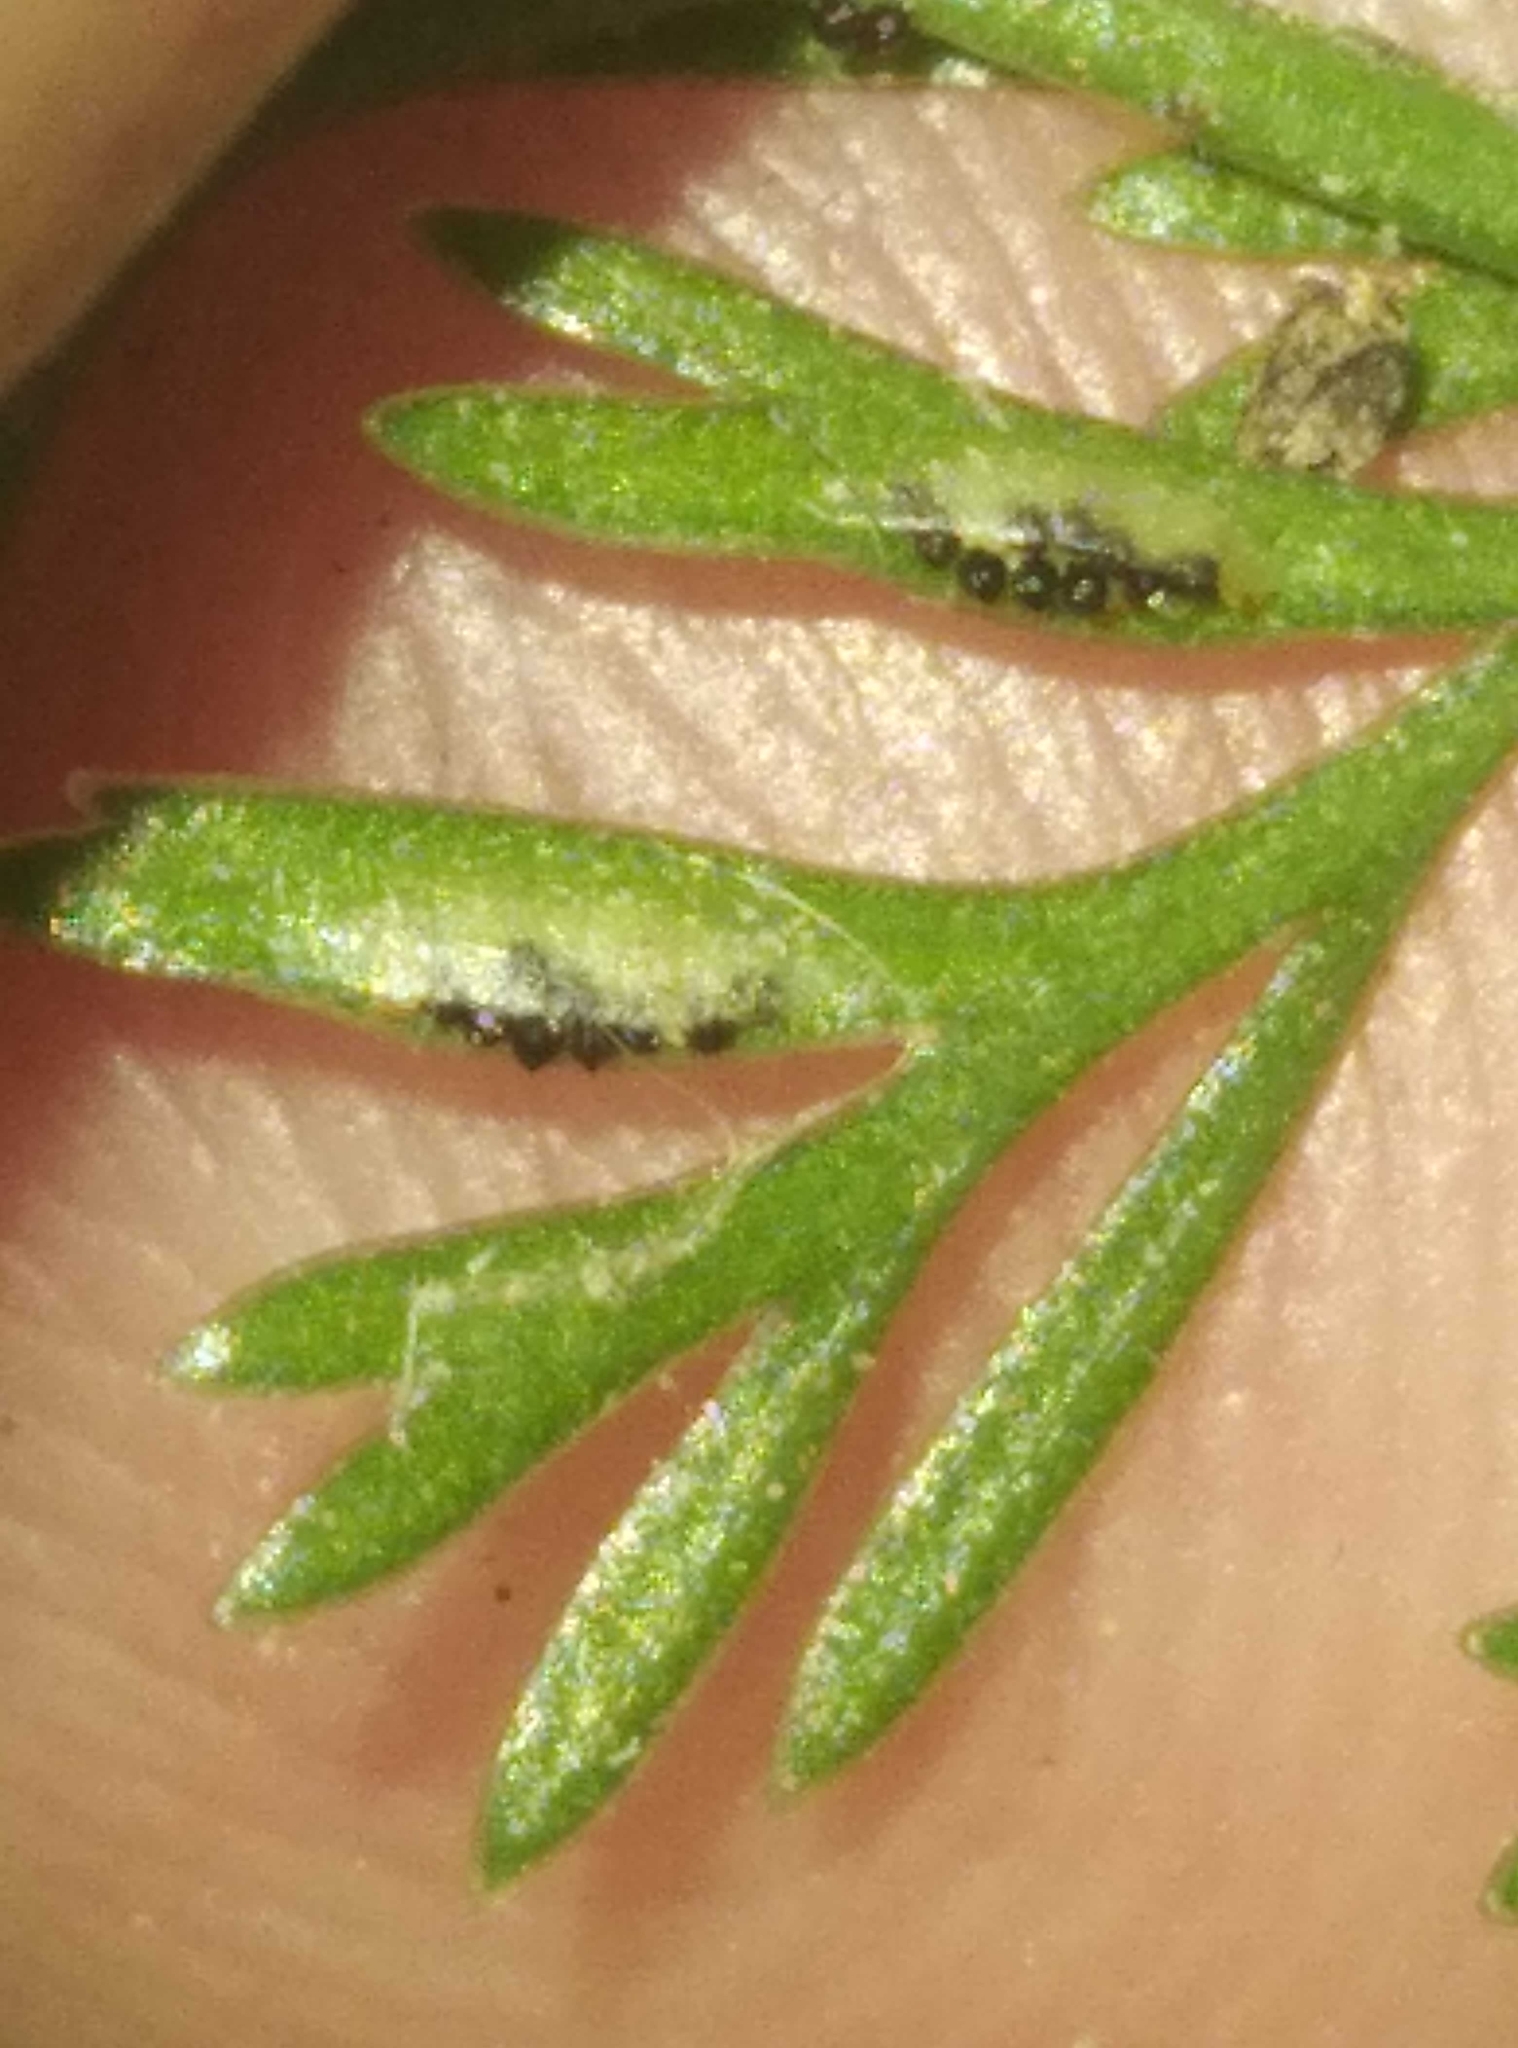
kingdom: Plantae
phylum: Tracheophyta
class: Polypodiopsida
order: Polypodiales
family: Aspleniaceae
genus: Asplenium
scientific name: Asplenium richardii
